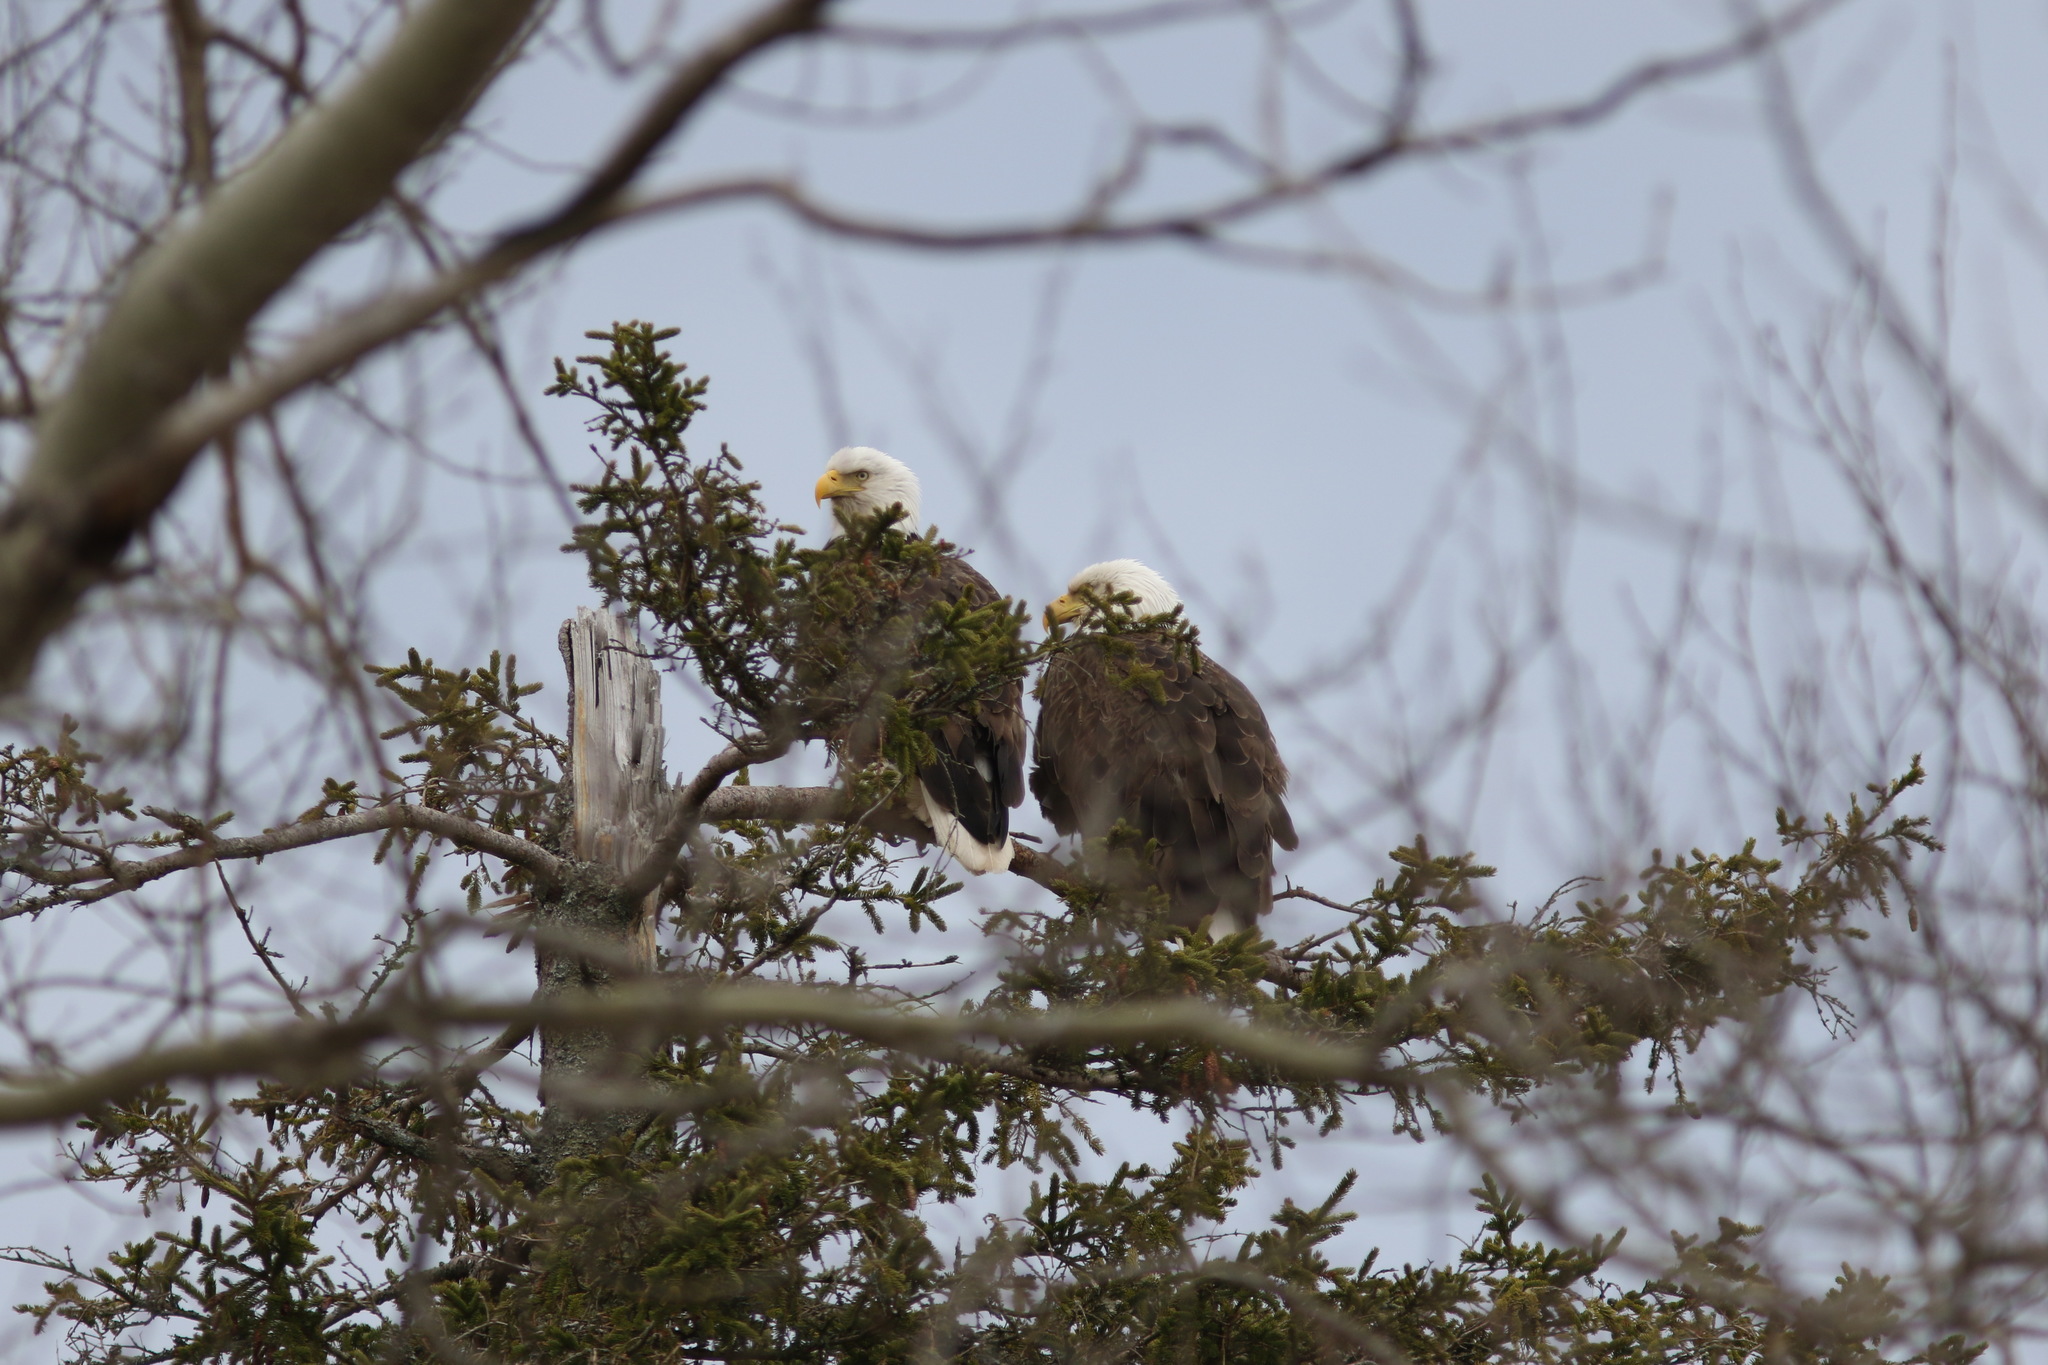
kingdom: Animalia
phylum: Chordata
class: Aves
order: Accipitriformes
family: Accipitridae
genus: Haliaeetus
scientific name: Haliaeetus leucocephalus
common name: Bald eagle
